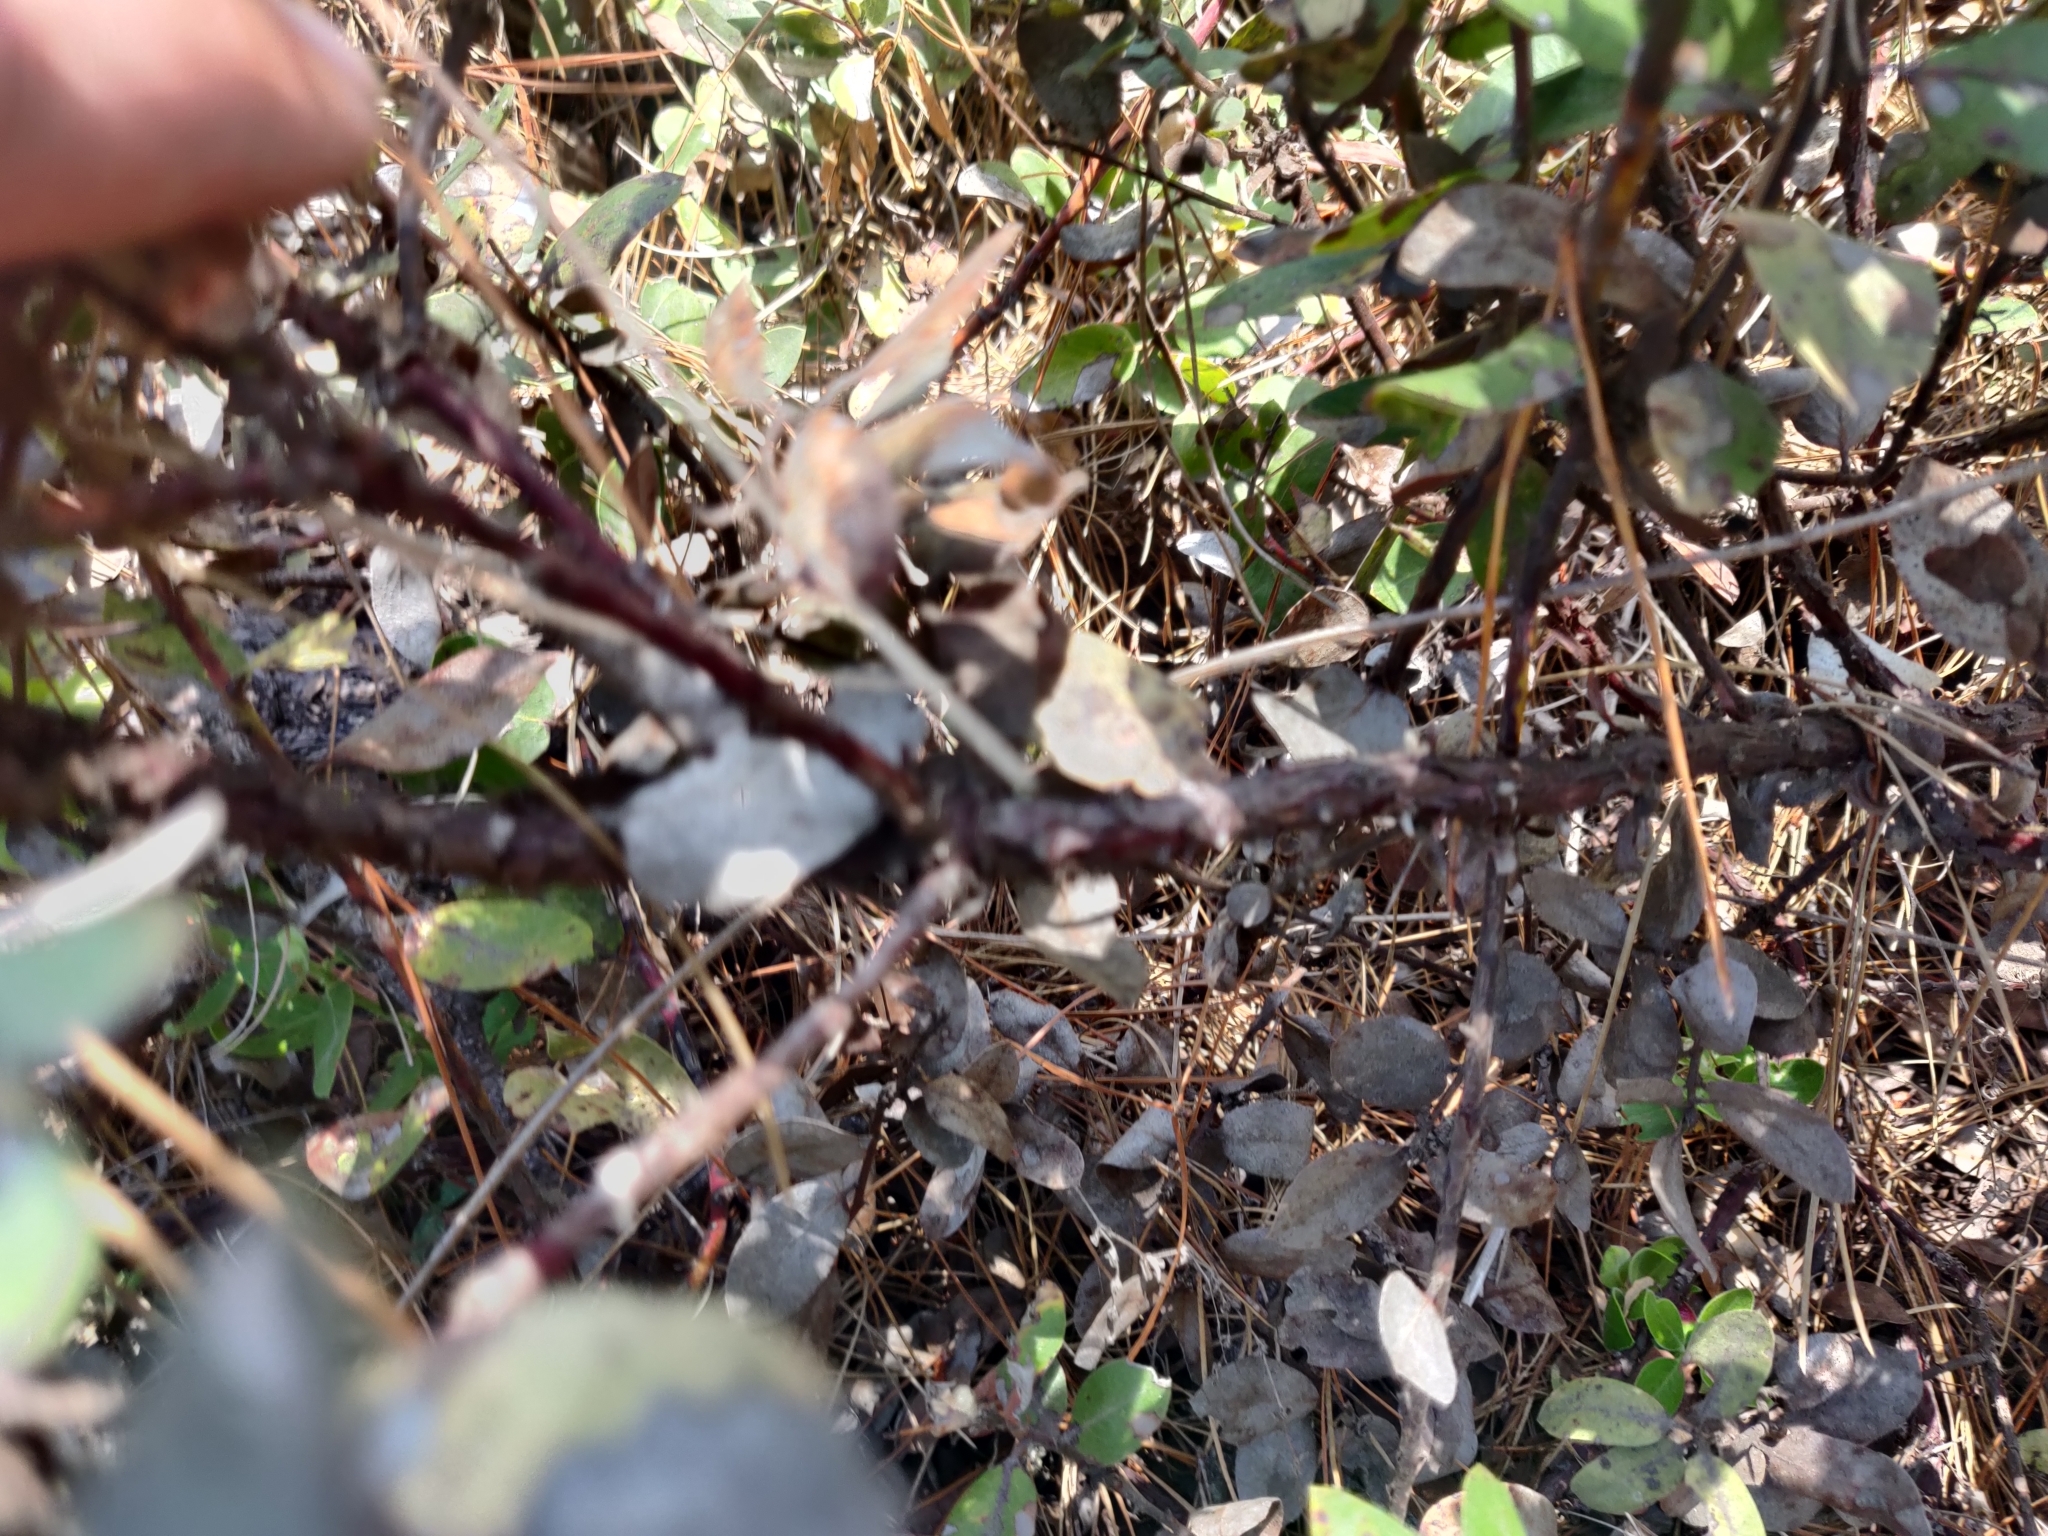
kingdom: Plantae
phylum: Tracheophyta
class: Magnoliopsida
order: Ericales
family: Ericaceae
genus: Arctostaphylos
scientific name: Arctostaphylos tomentosa
